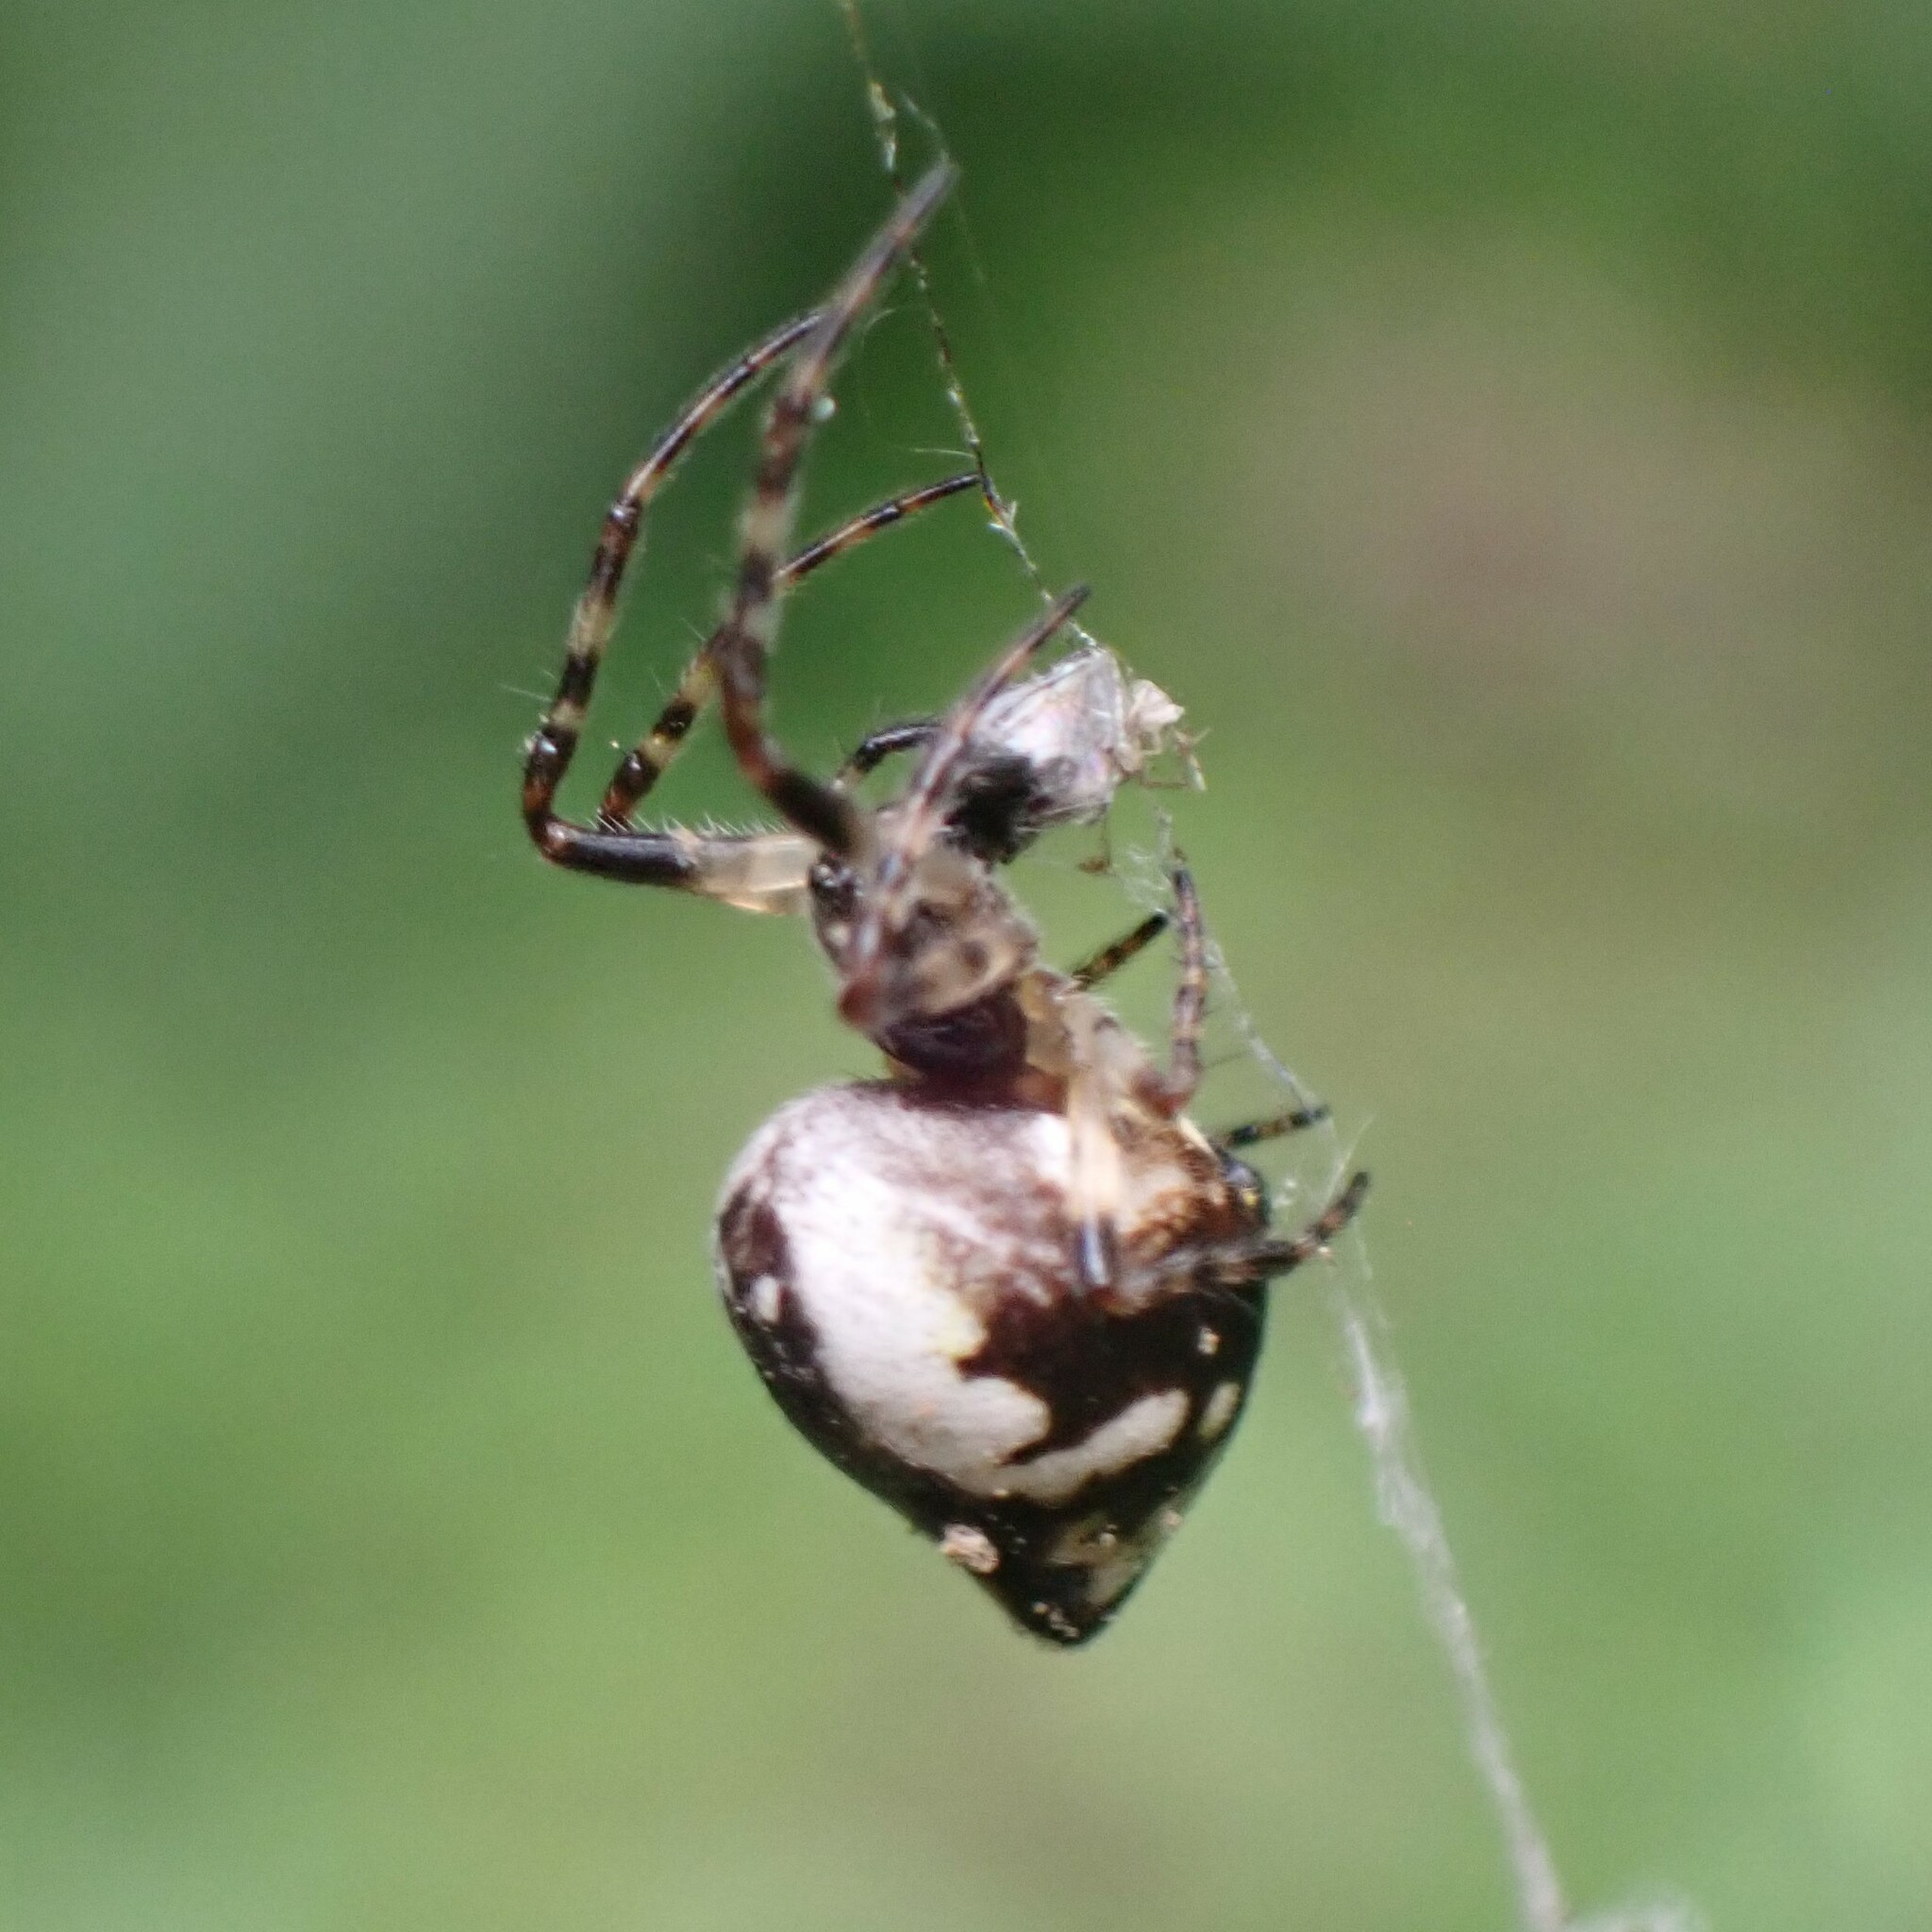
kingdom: Animalia
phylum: Arthropoda
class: Arachnida
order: Araneae
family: Araneidae
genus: Cyclosa
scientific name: Cyclosa conica
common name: Conical trashline orbweaver
